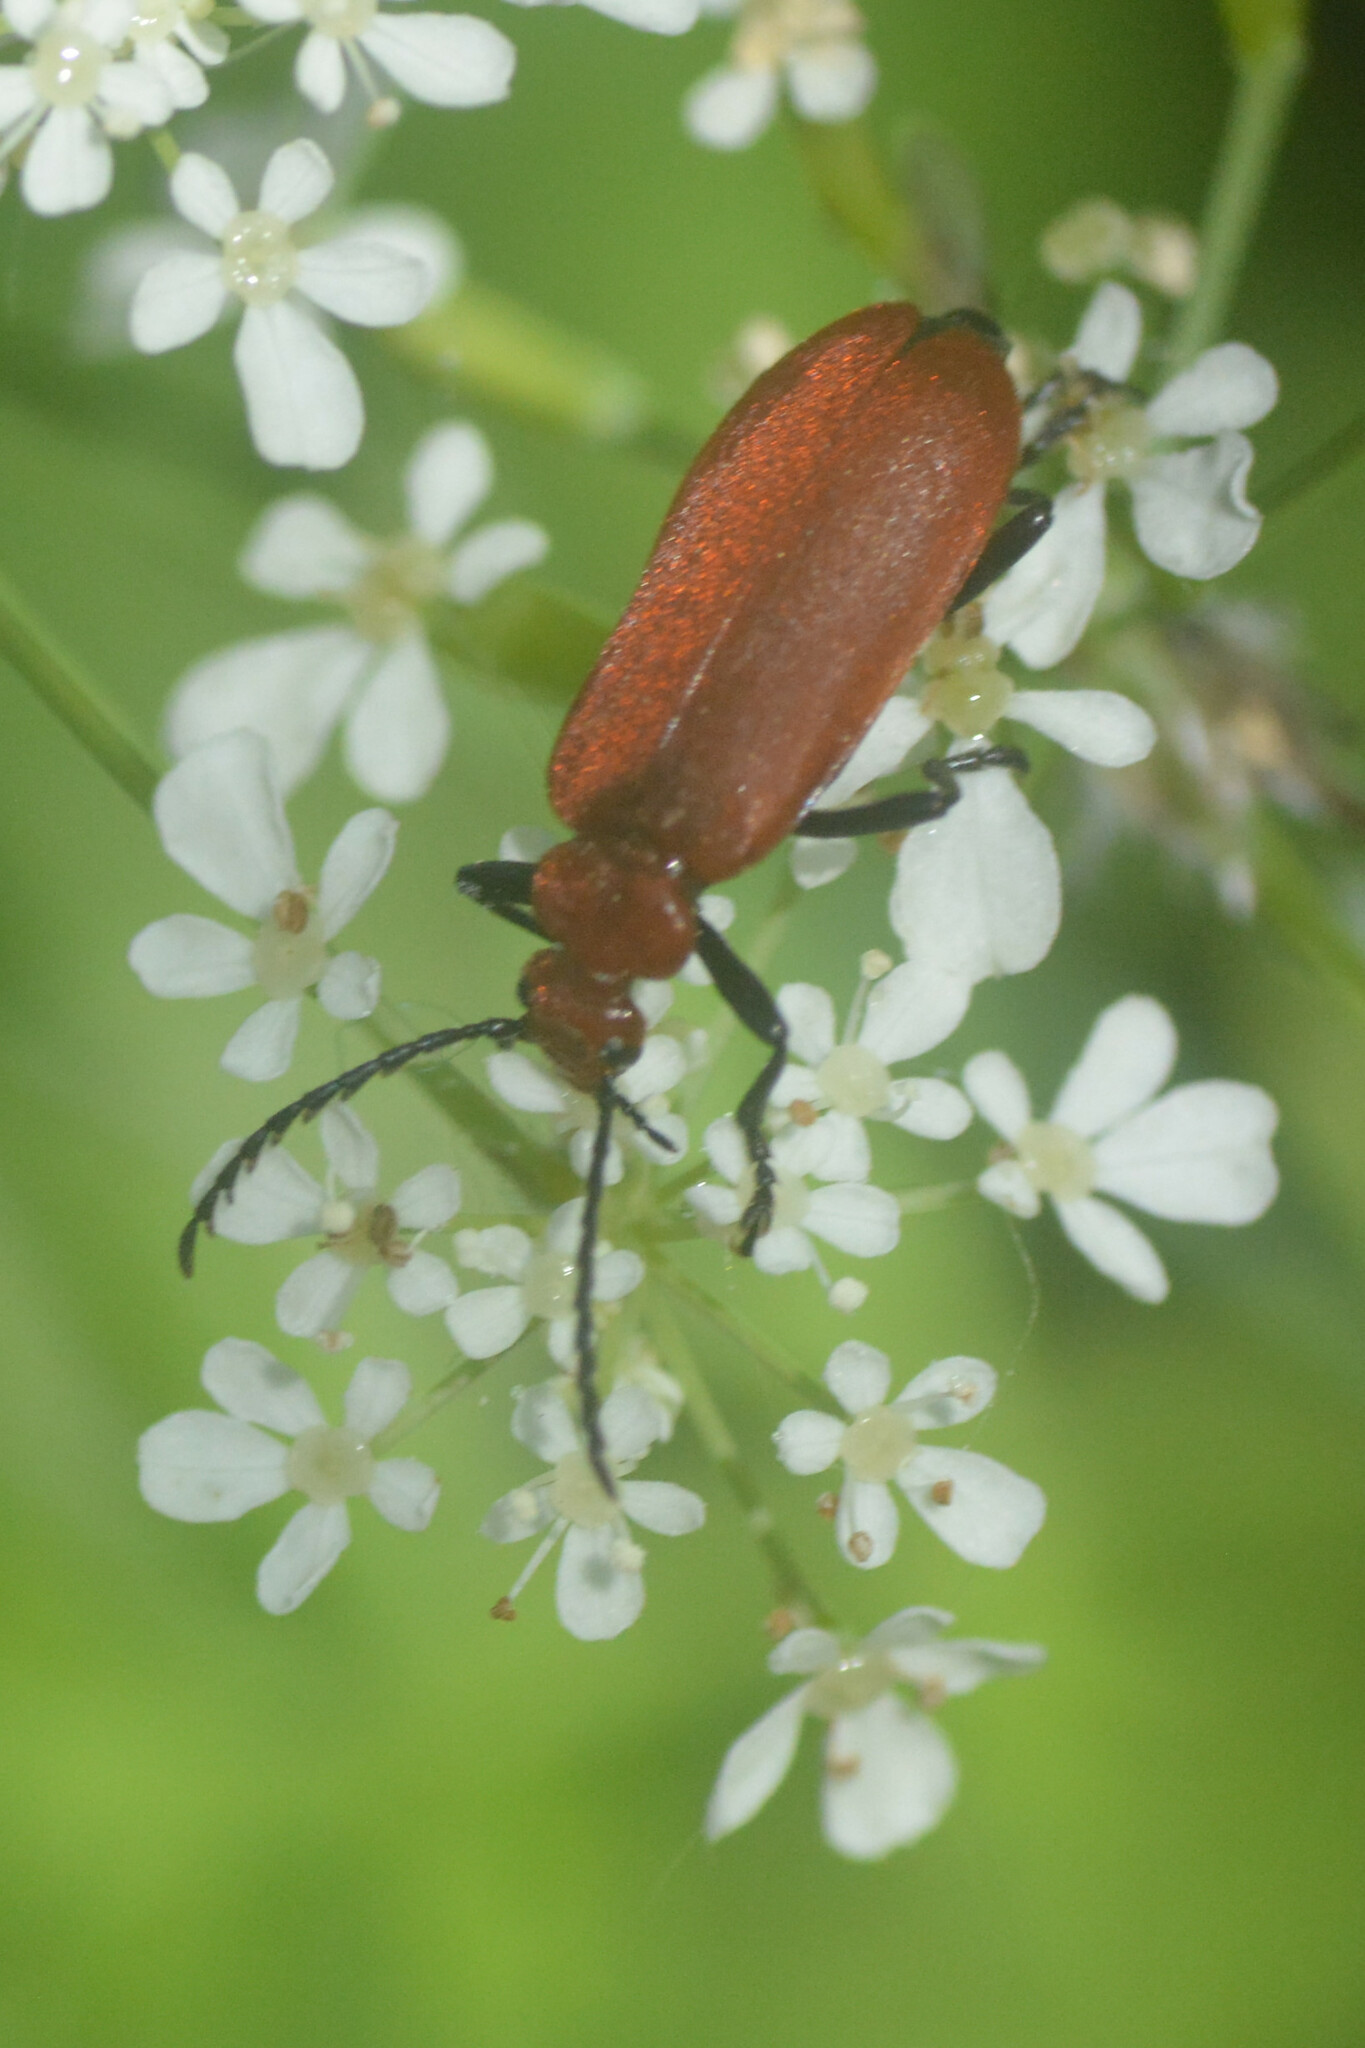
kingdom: Animalia
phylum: Arthropoda
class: Insecta
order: Coleoptera
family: Pyrochroidae
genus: Pyrochroa
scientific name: Pyrochroa serraticornis
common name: Red-headed cardinal beetle
